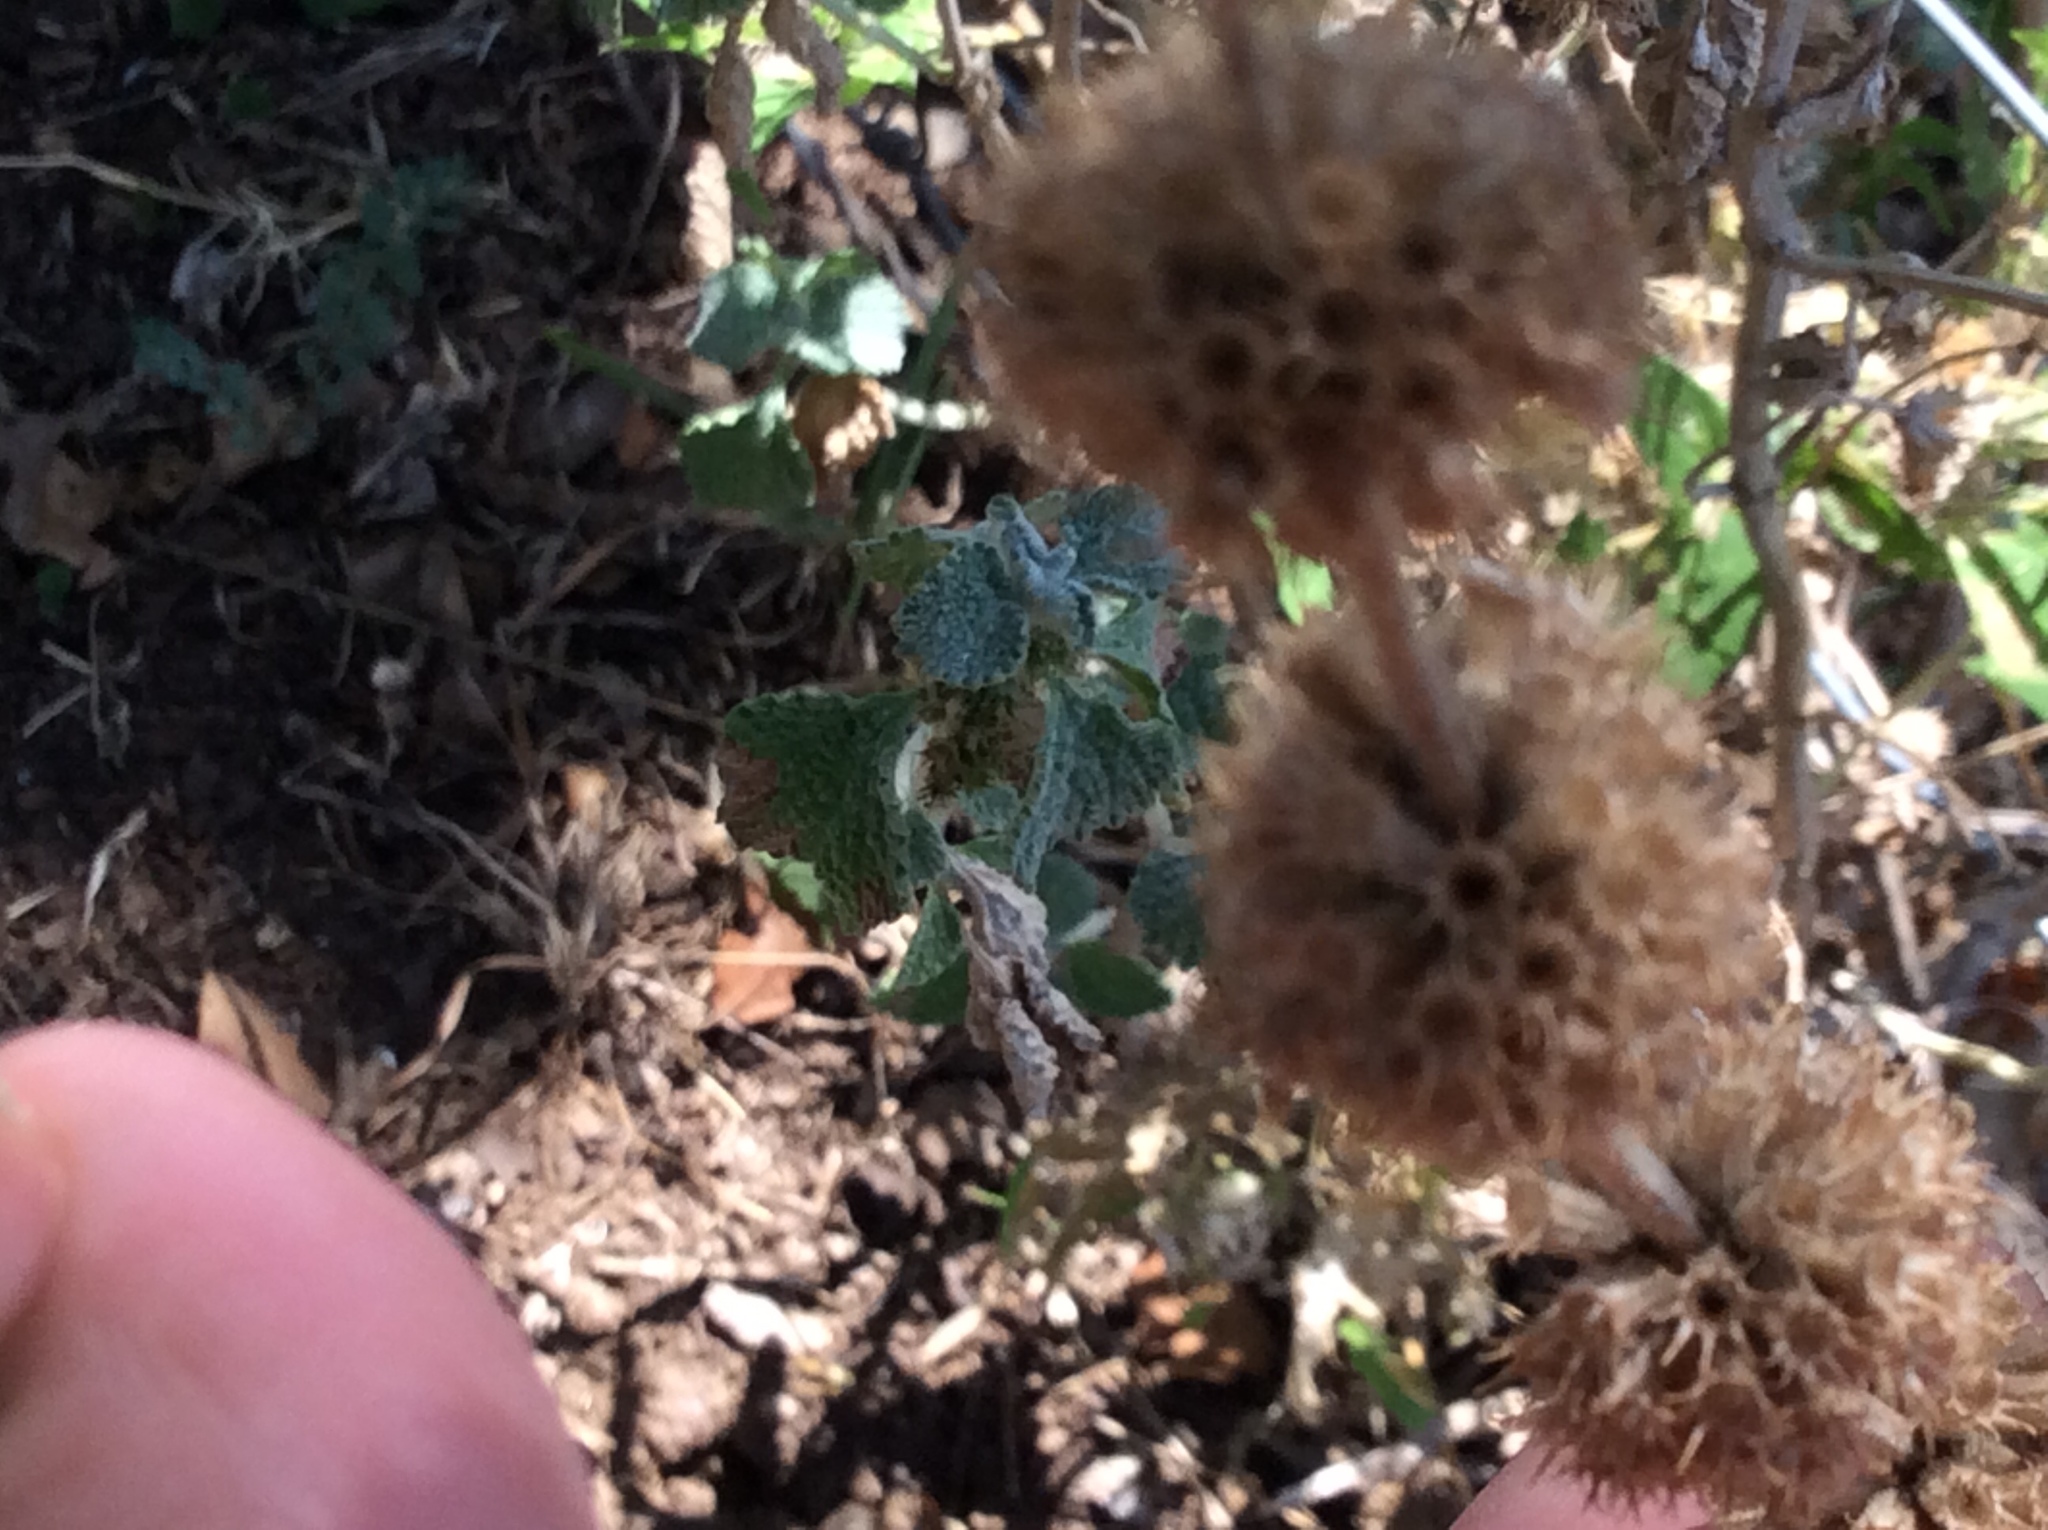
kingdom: Plantae
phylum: Tracheophyta
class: Magnoliopsida
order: Lamiales
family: Lamiaceae
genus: Marrubium
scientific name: Marrubium vulgare
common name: Horehound
